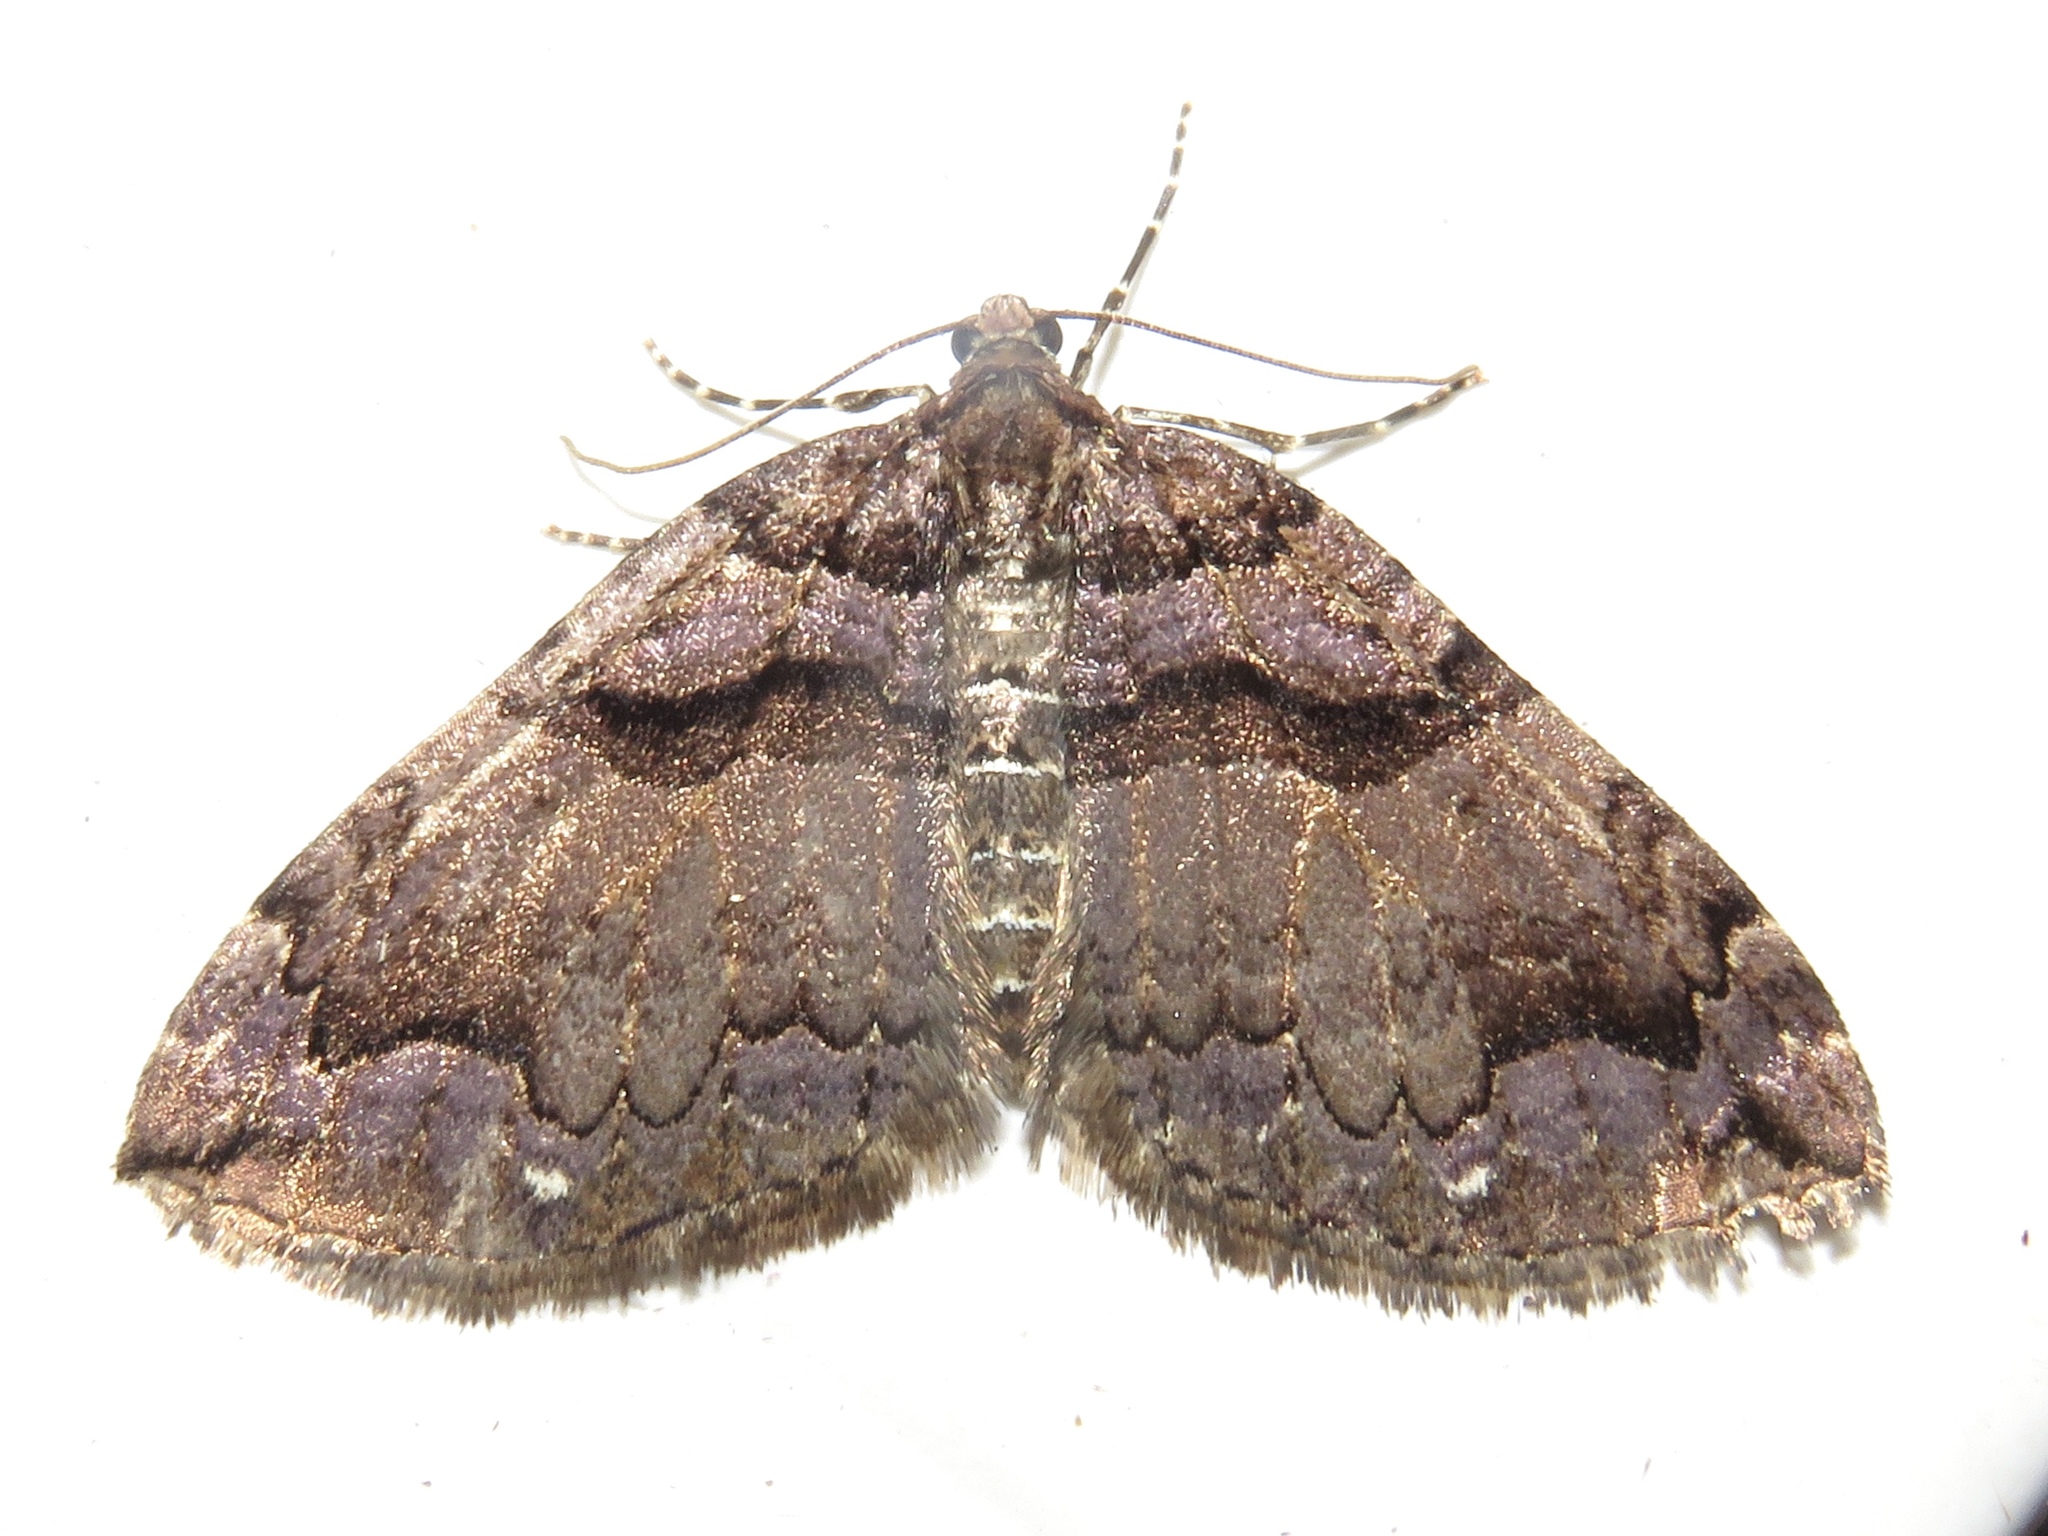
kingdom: Animalia
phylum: Arthropoda
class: Insecta
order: Lepidoptera
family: Geometridae
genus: Anticlea
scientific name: Anticlea vasiliata
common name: Variable carpet
